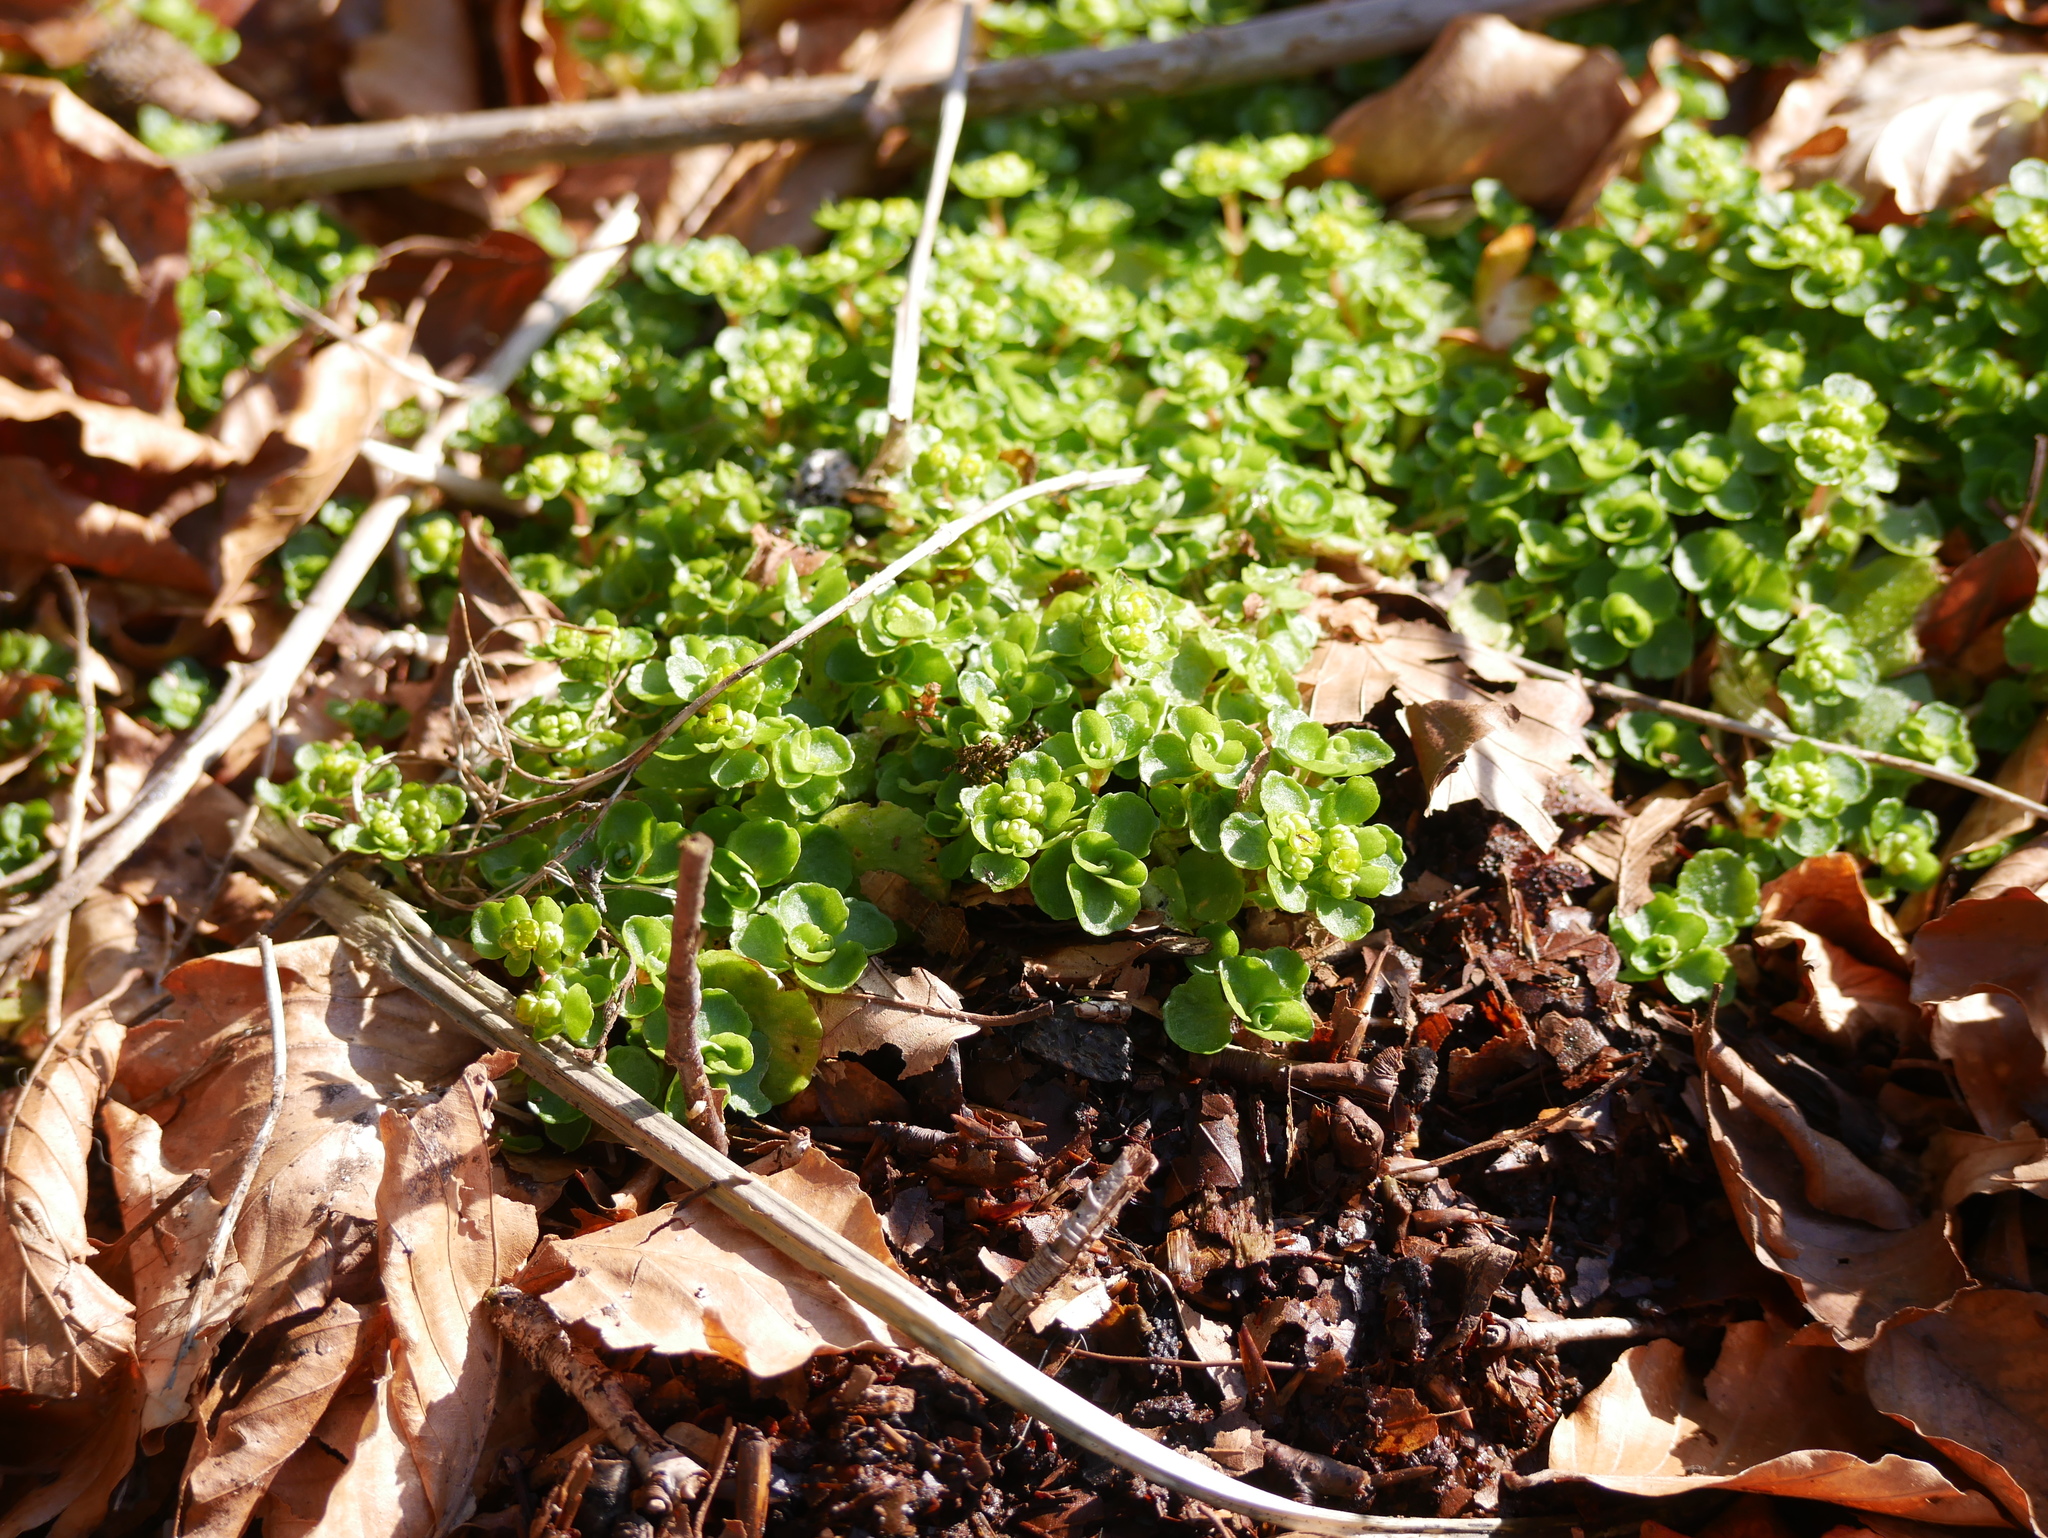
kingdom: Plantae
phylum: Tracheophyta
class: Magnoliopsida
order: Saxifragales
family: Saxifragaceae
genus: Chrysosplenium
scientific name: Chrysosplenium oppositifolium
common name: Opposite-leaved golden-saxifrage
